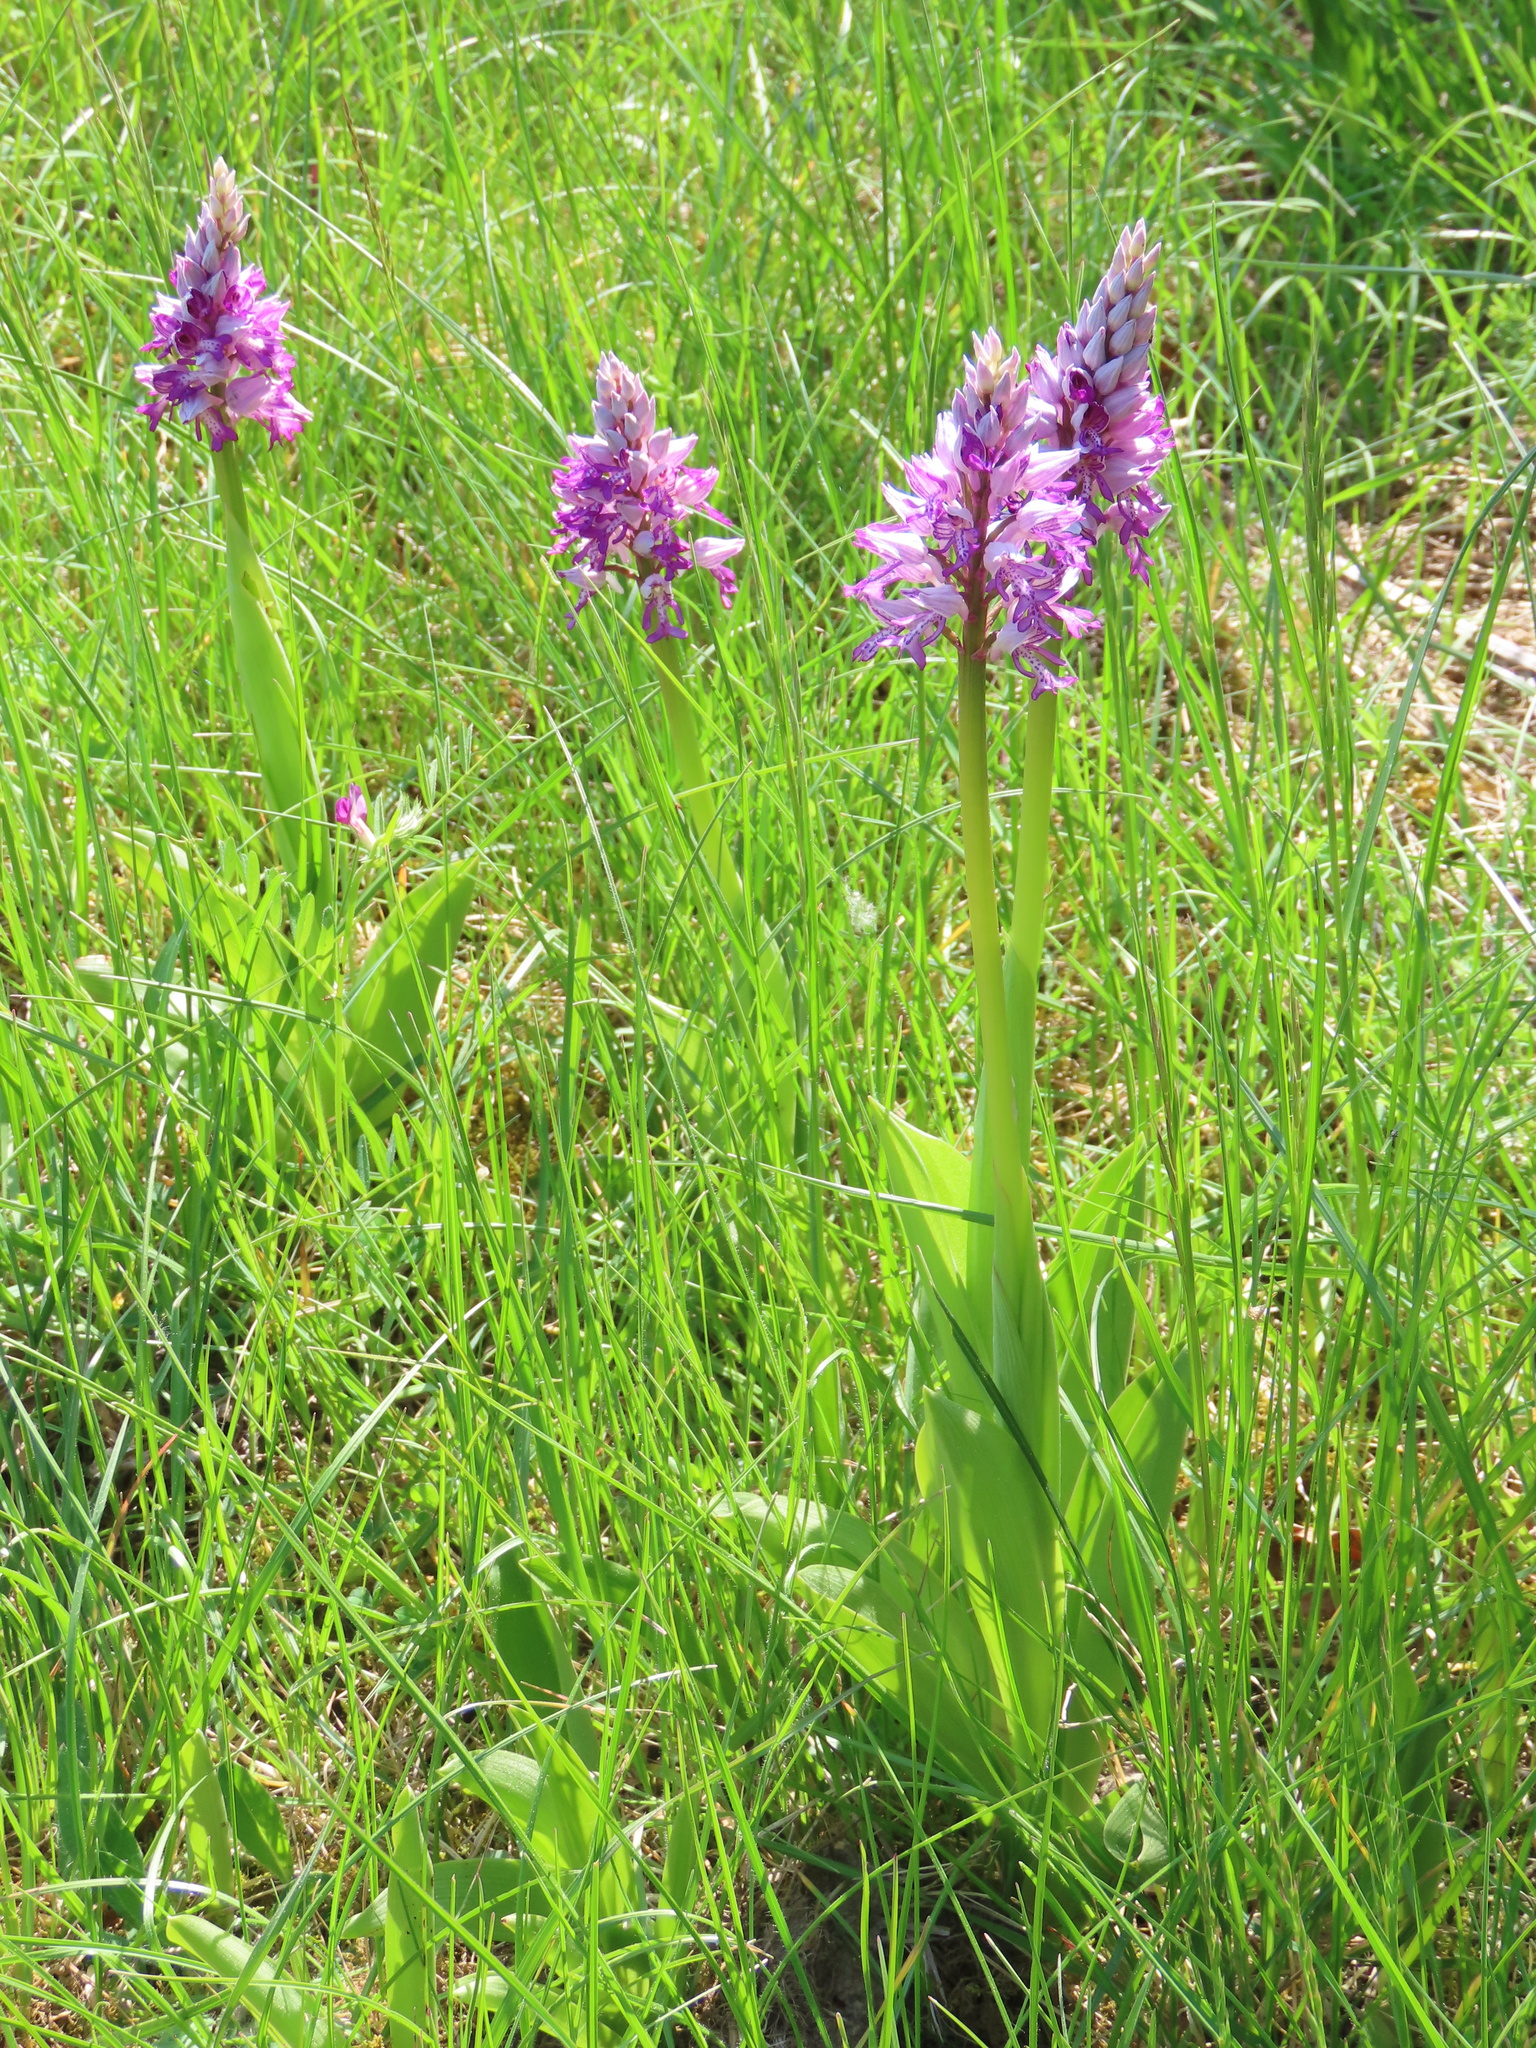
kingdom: Plantae
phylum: Tracheophyta
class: Liliopsida
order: Asparagales
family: Orchidaceae
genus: Orchis
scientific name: Orchis militaris
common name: Military orchid
